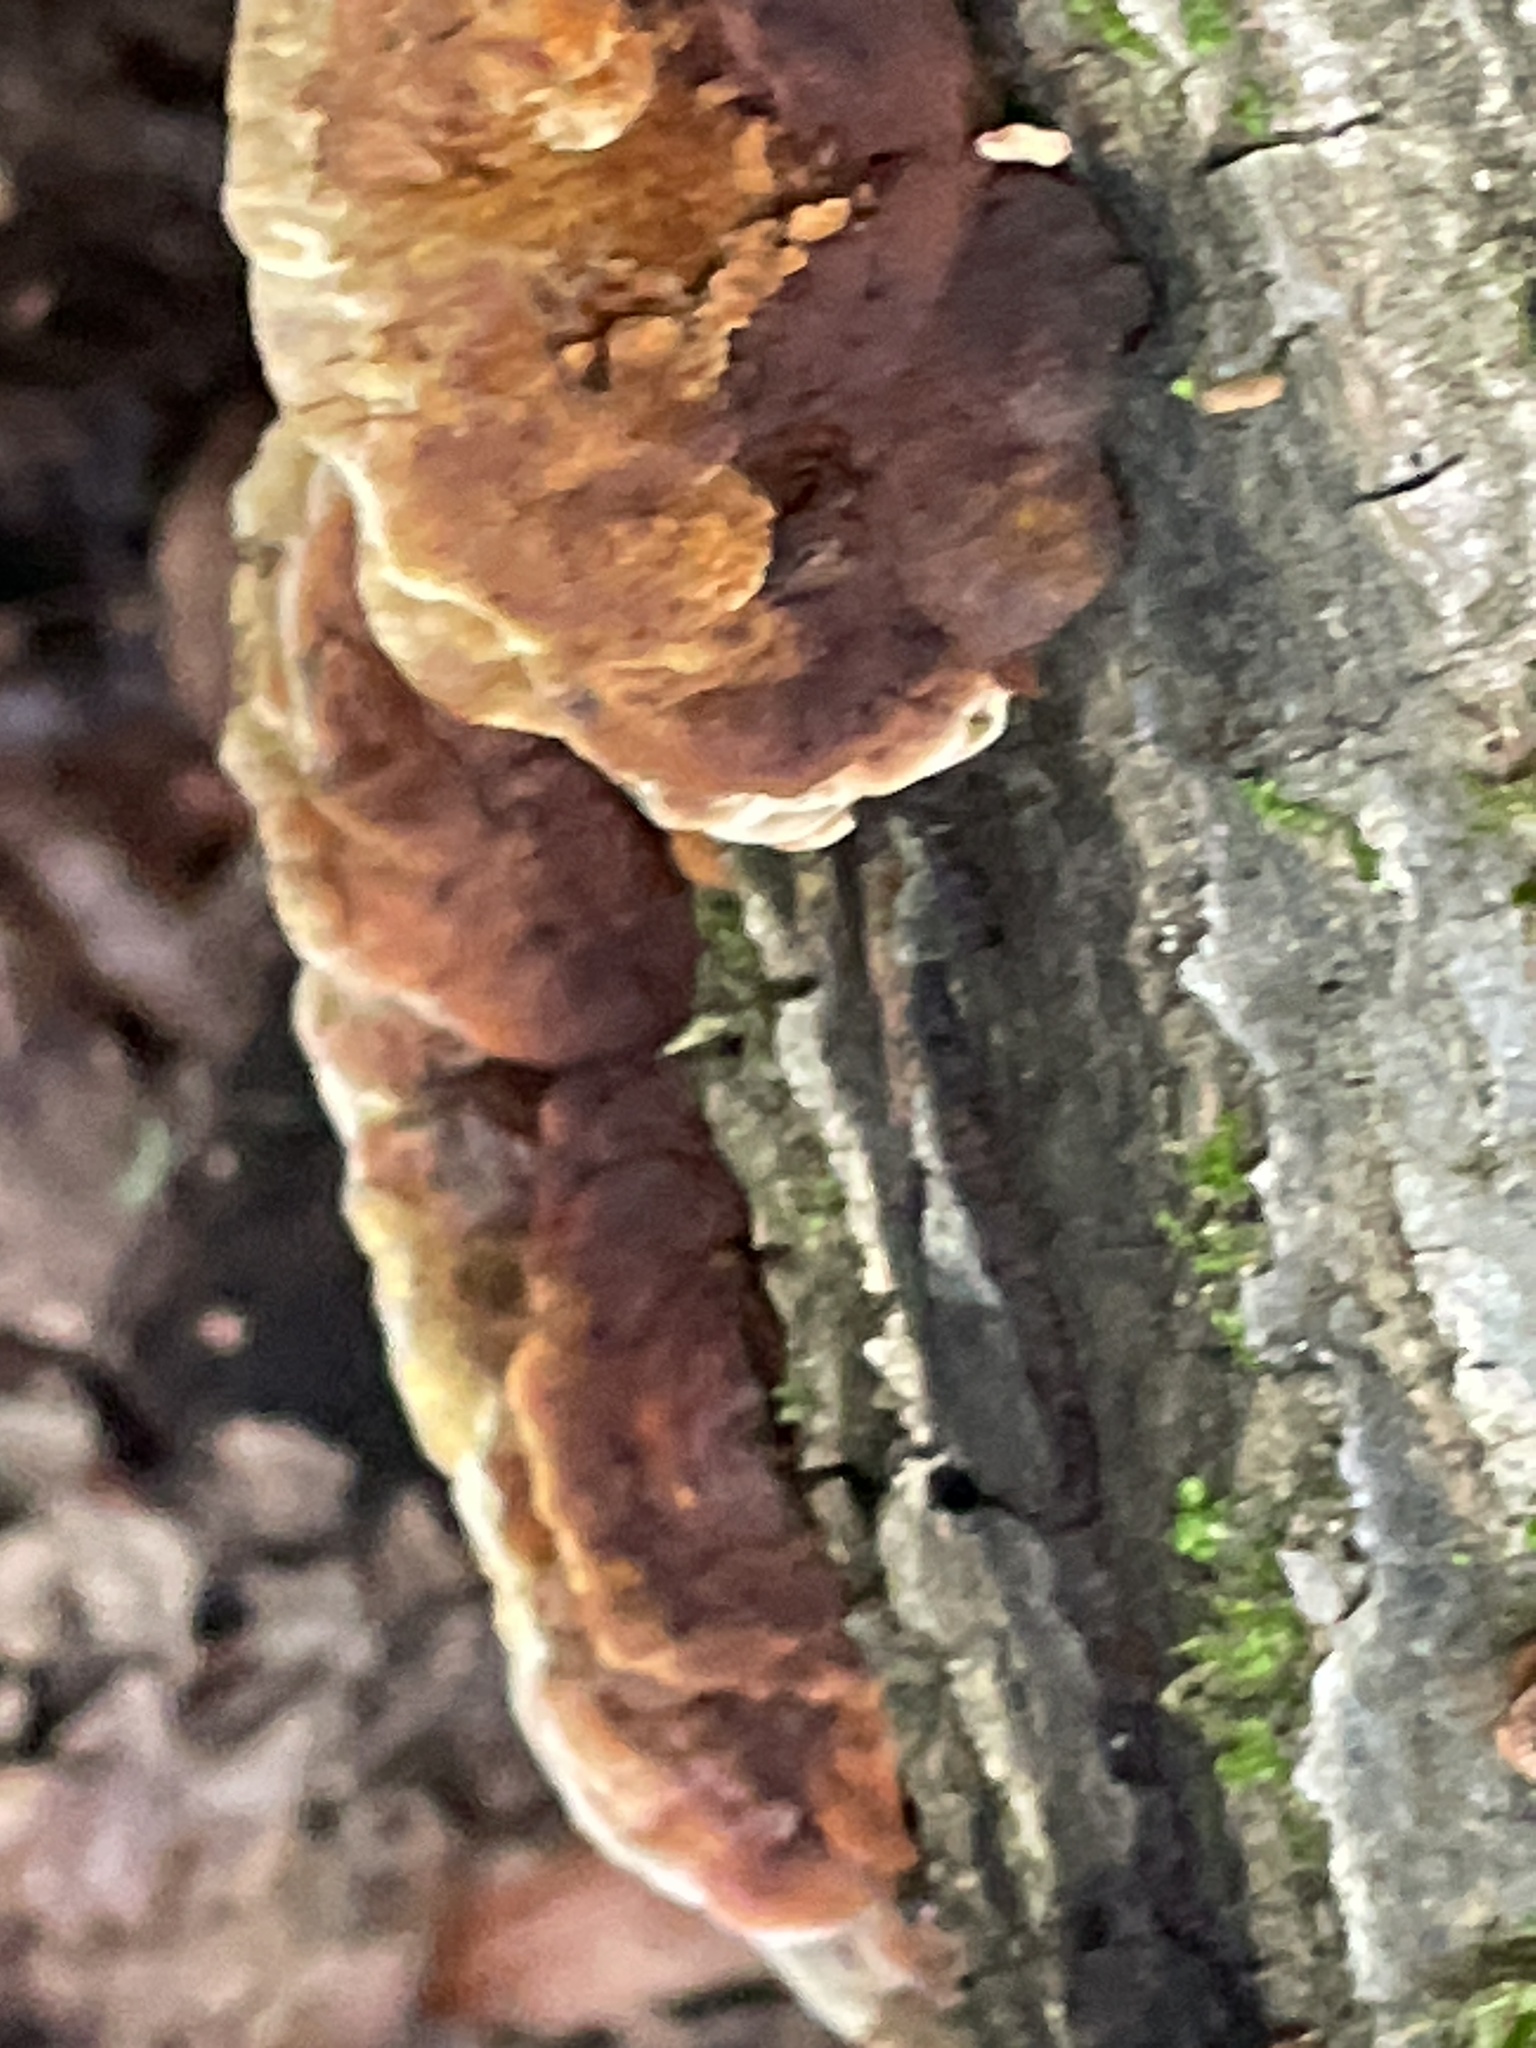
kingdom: Fungi
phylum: Basidiomycota
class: Agaricomycetes
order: Hymenochaetales
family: Hymenochaetaceae
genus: Phellinus
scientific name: Phellinus gilvus
